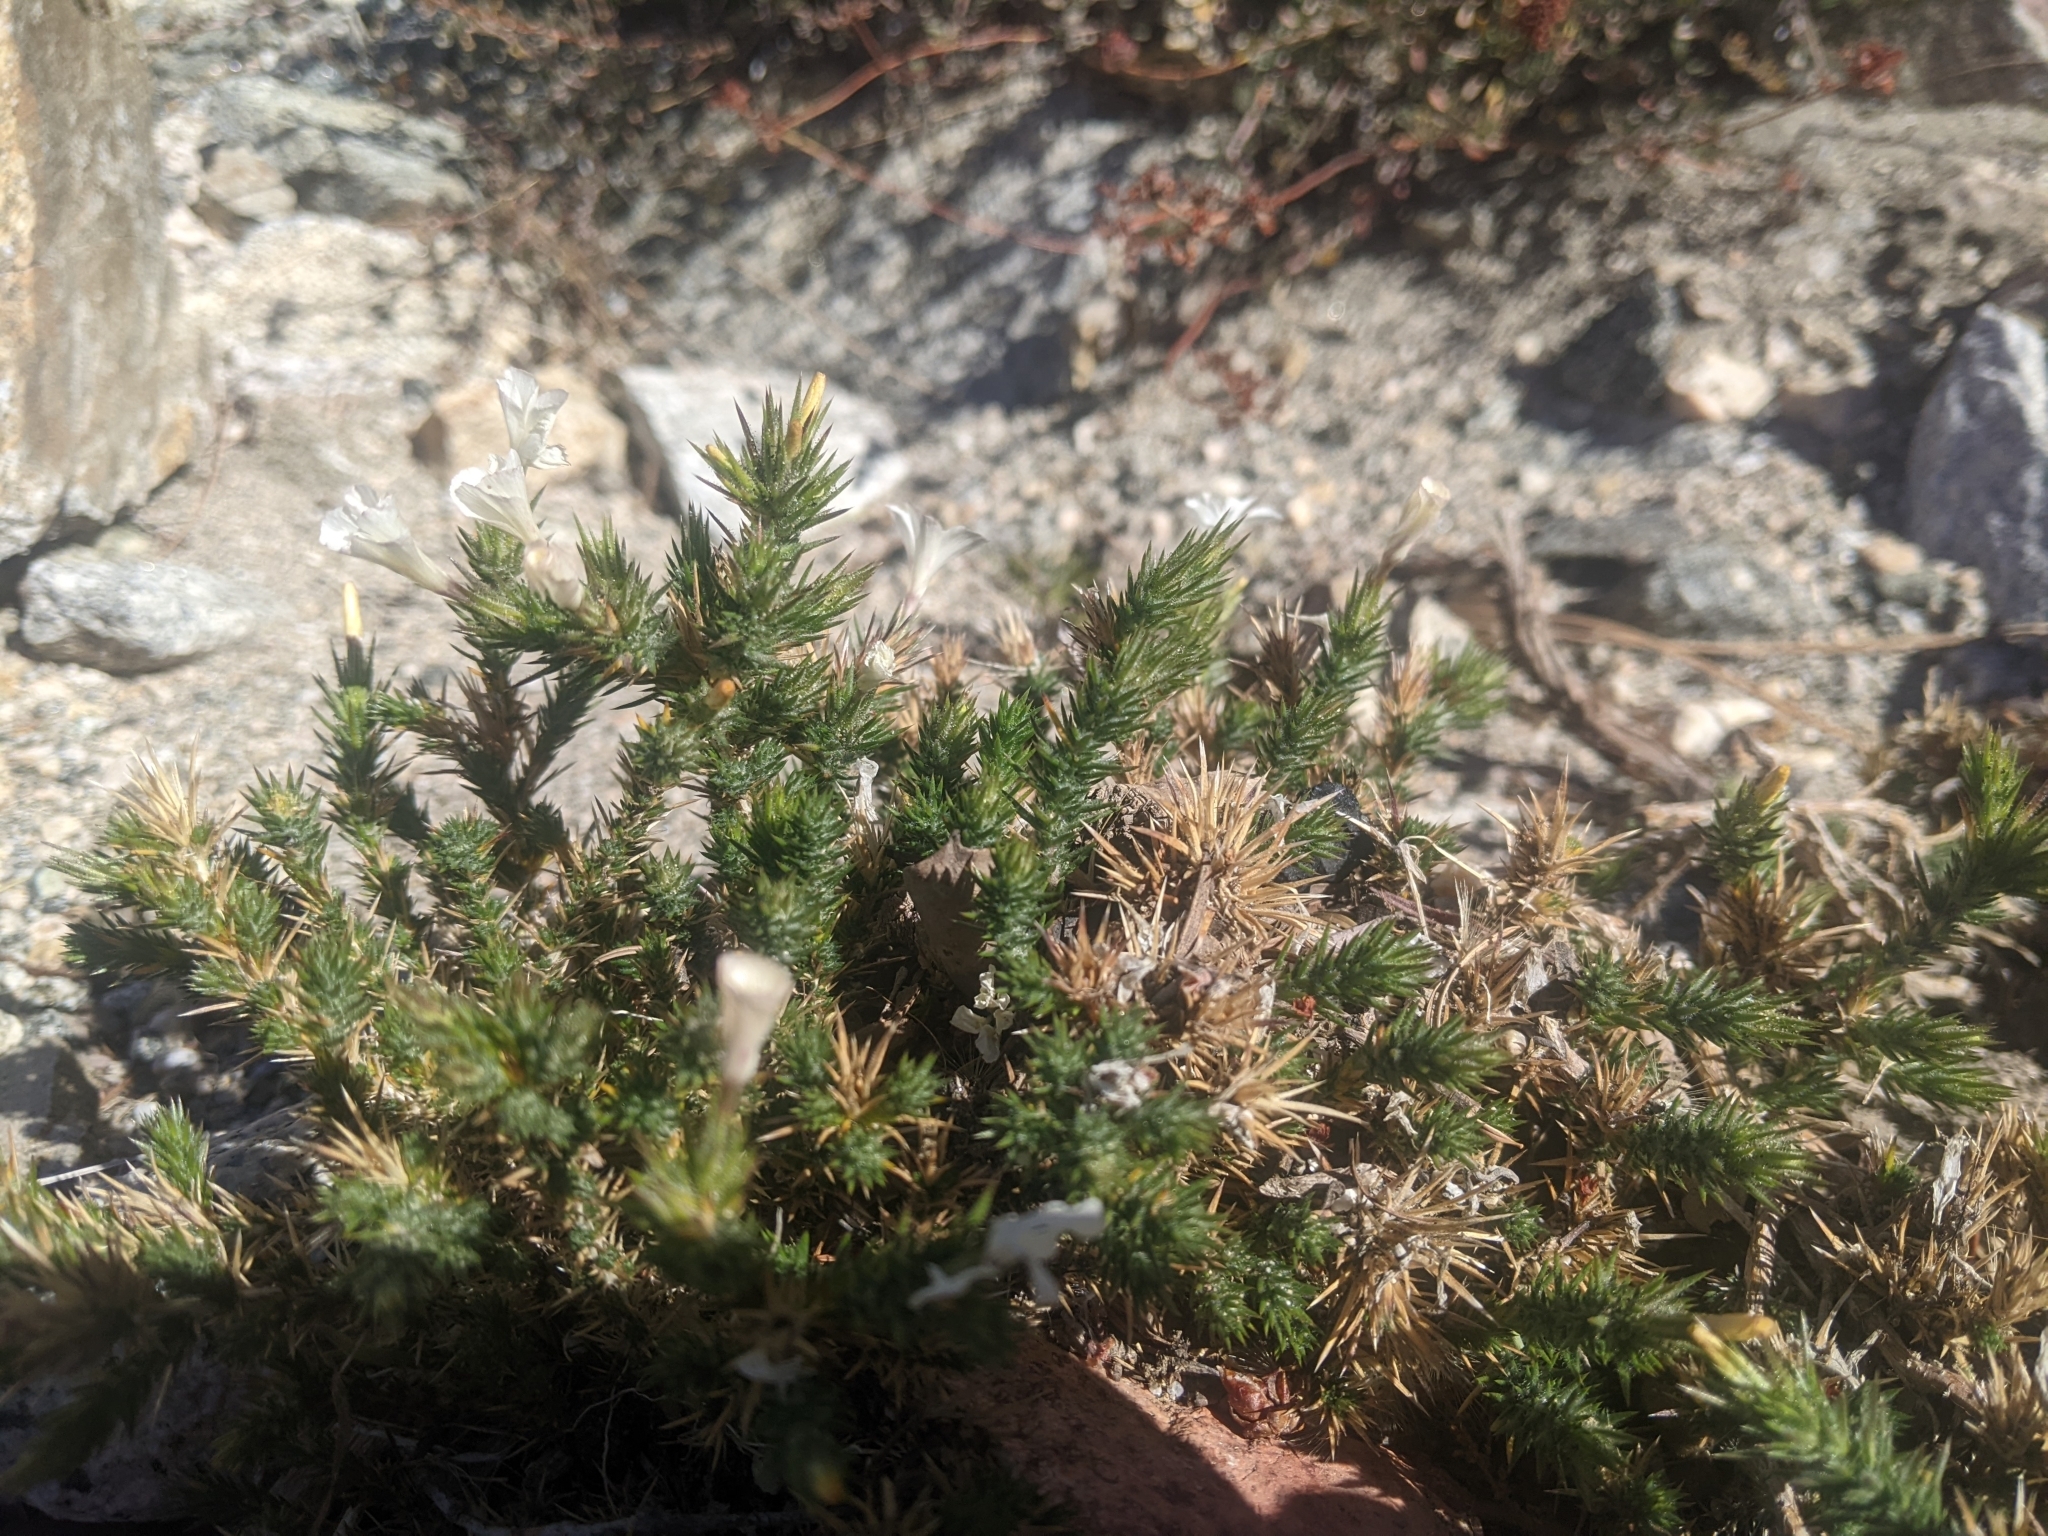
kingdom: Plantae
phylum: Tracheophyta
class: Magnoliopsida
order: Ericales
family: Polemoniaceae
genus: Linanthus
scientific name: Linanthus pungens
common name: Granite prickly phlox
